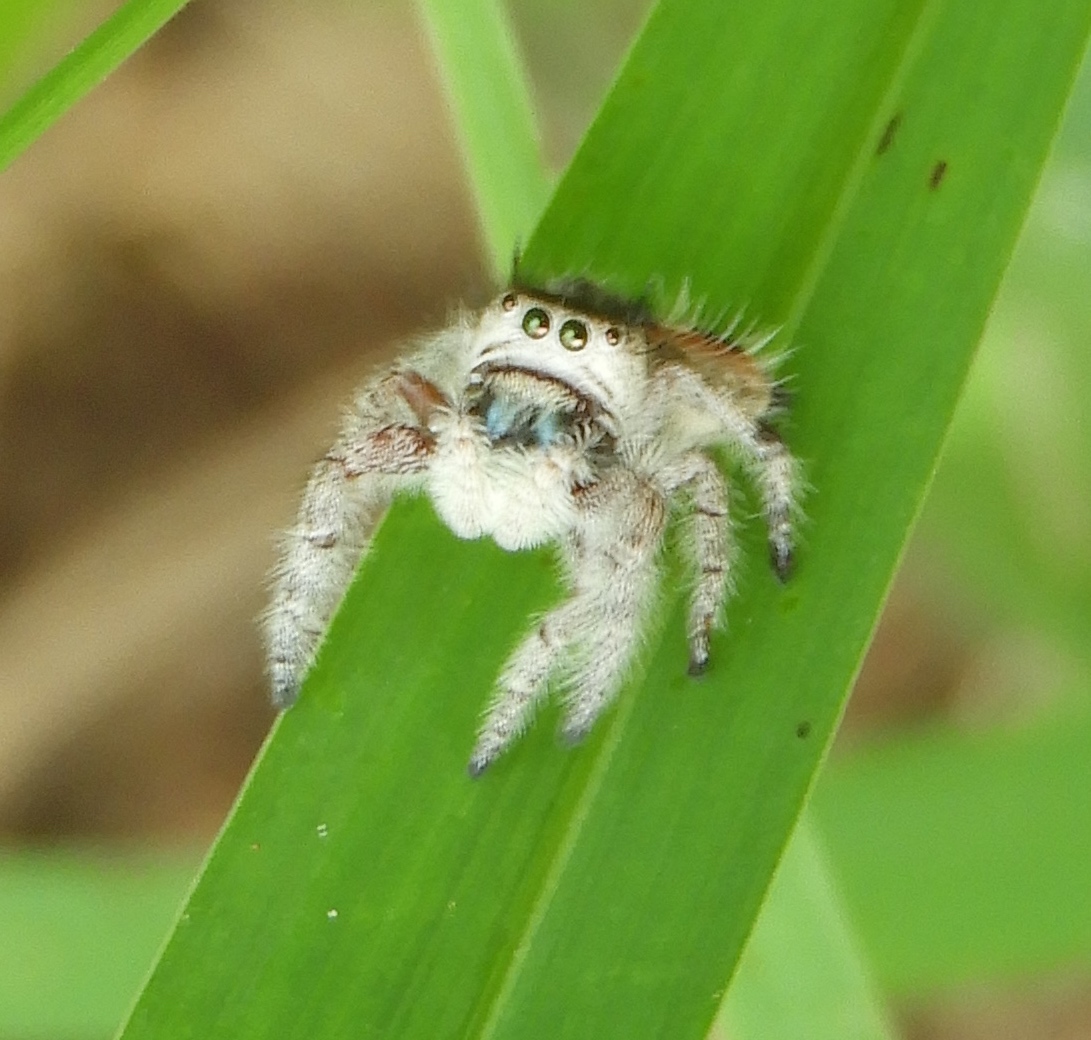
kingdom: Animalia
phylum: Arthropoda
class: Arachnida
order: Araneae
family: Salticidae
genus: Phidippus
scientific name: Phidippus pacosauritus
